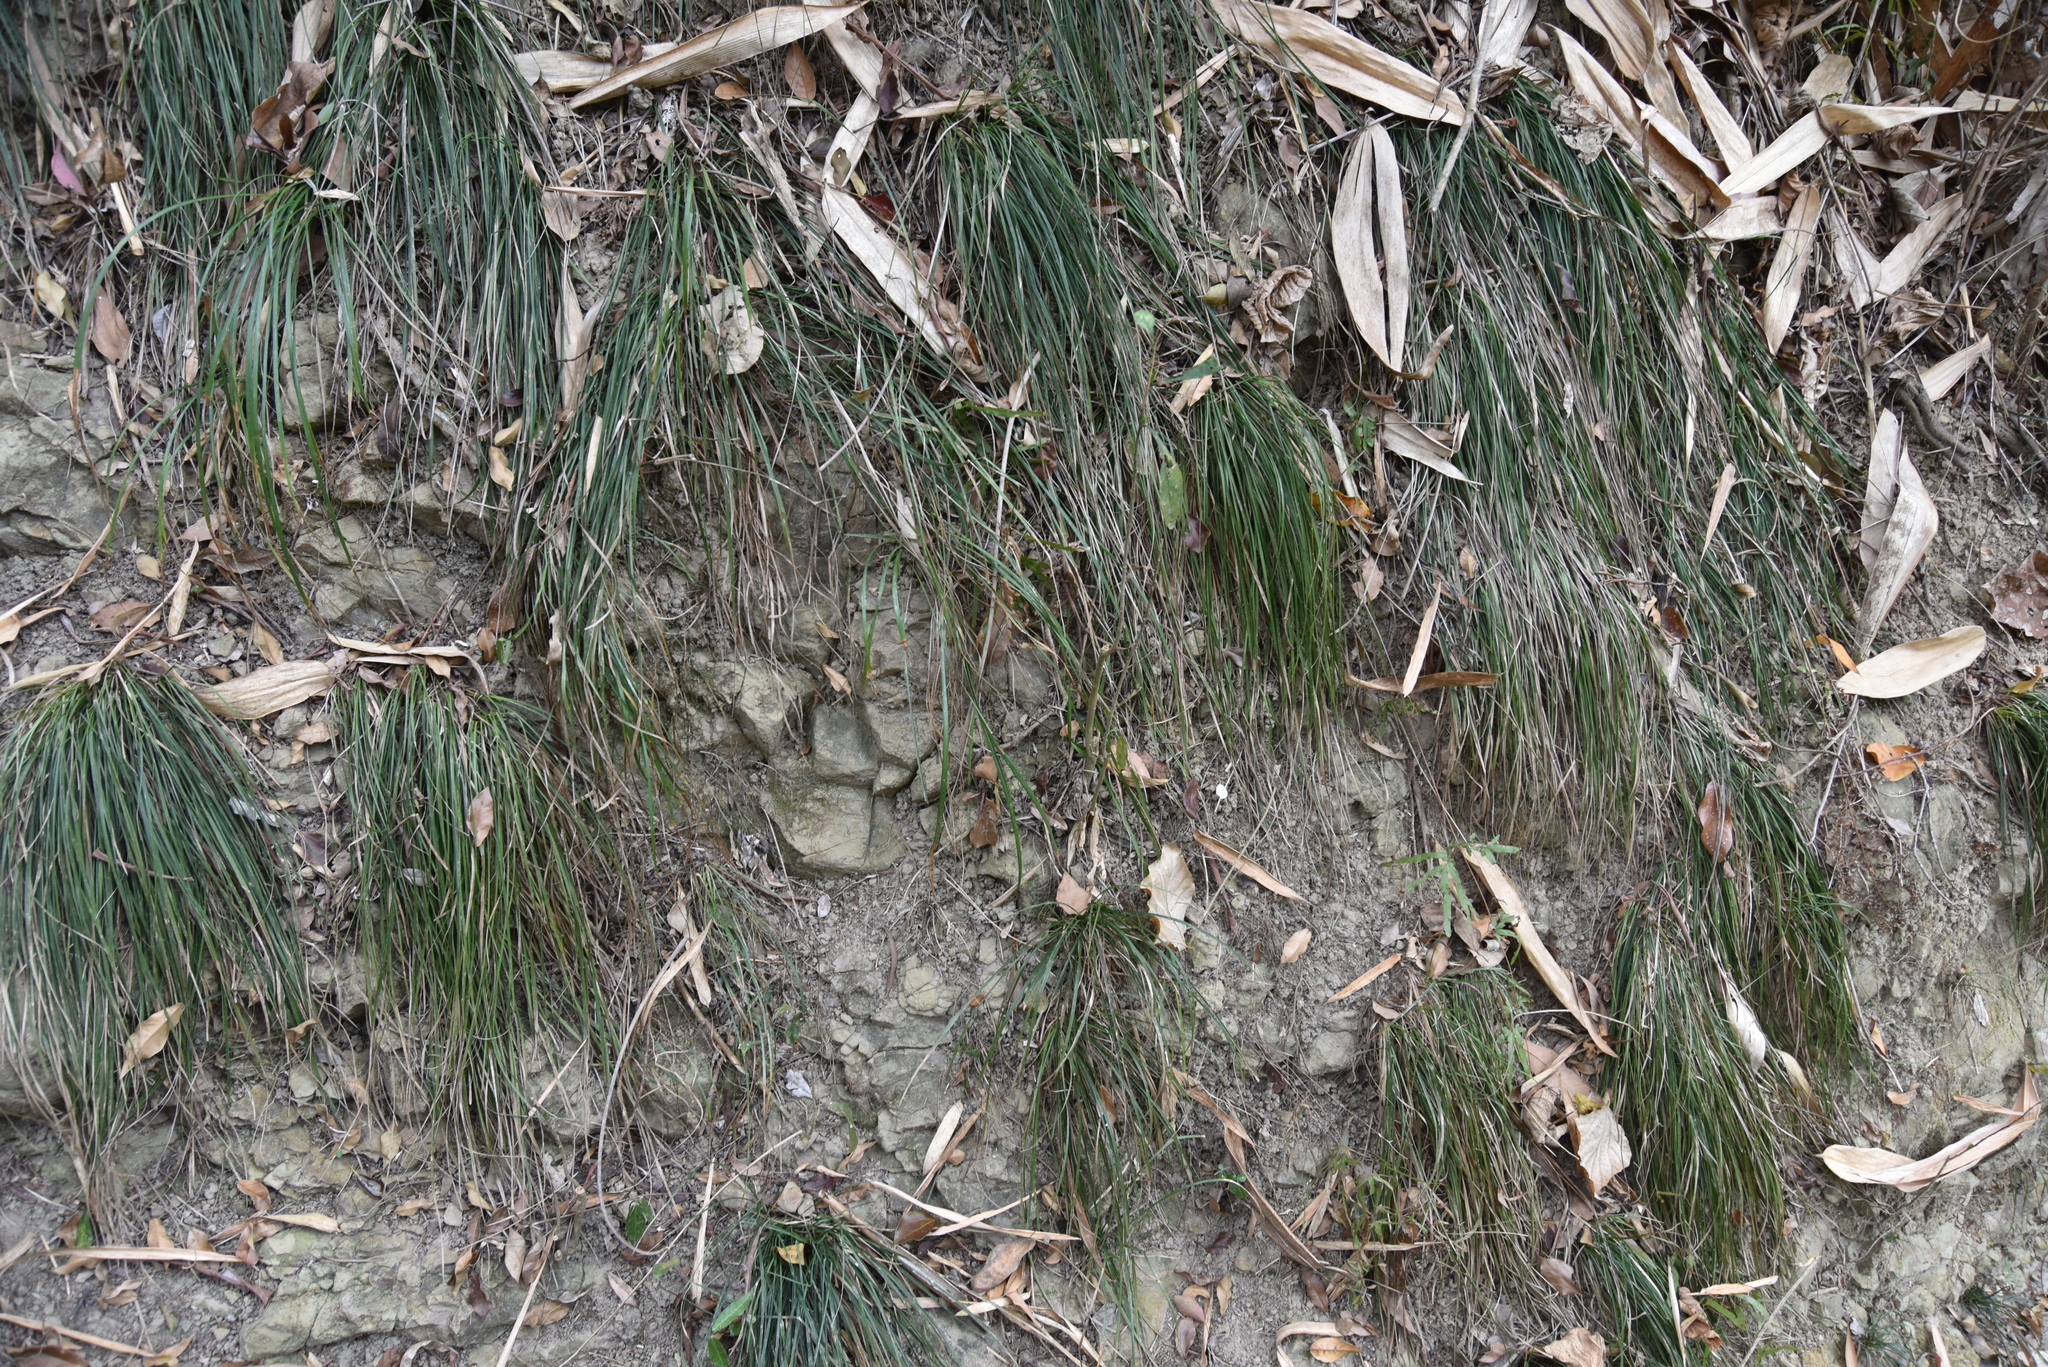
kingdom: Plantae
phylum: Tracheophyta
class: Liliopsida
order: Poales
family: Cyperaceae
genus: Carex
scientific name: Carex ascotreta
